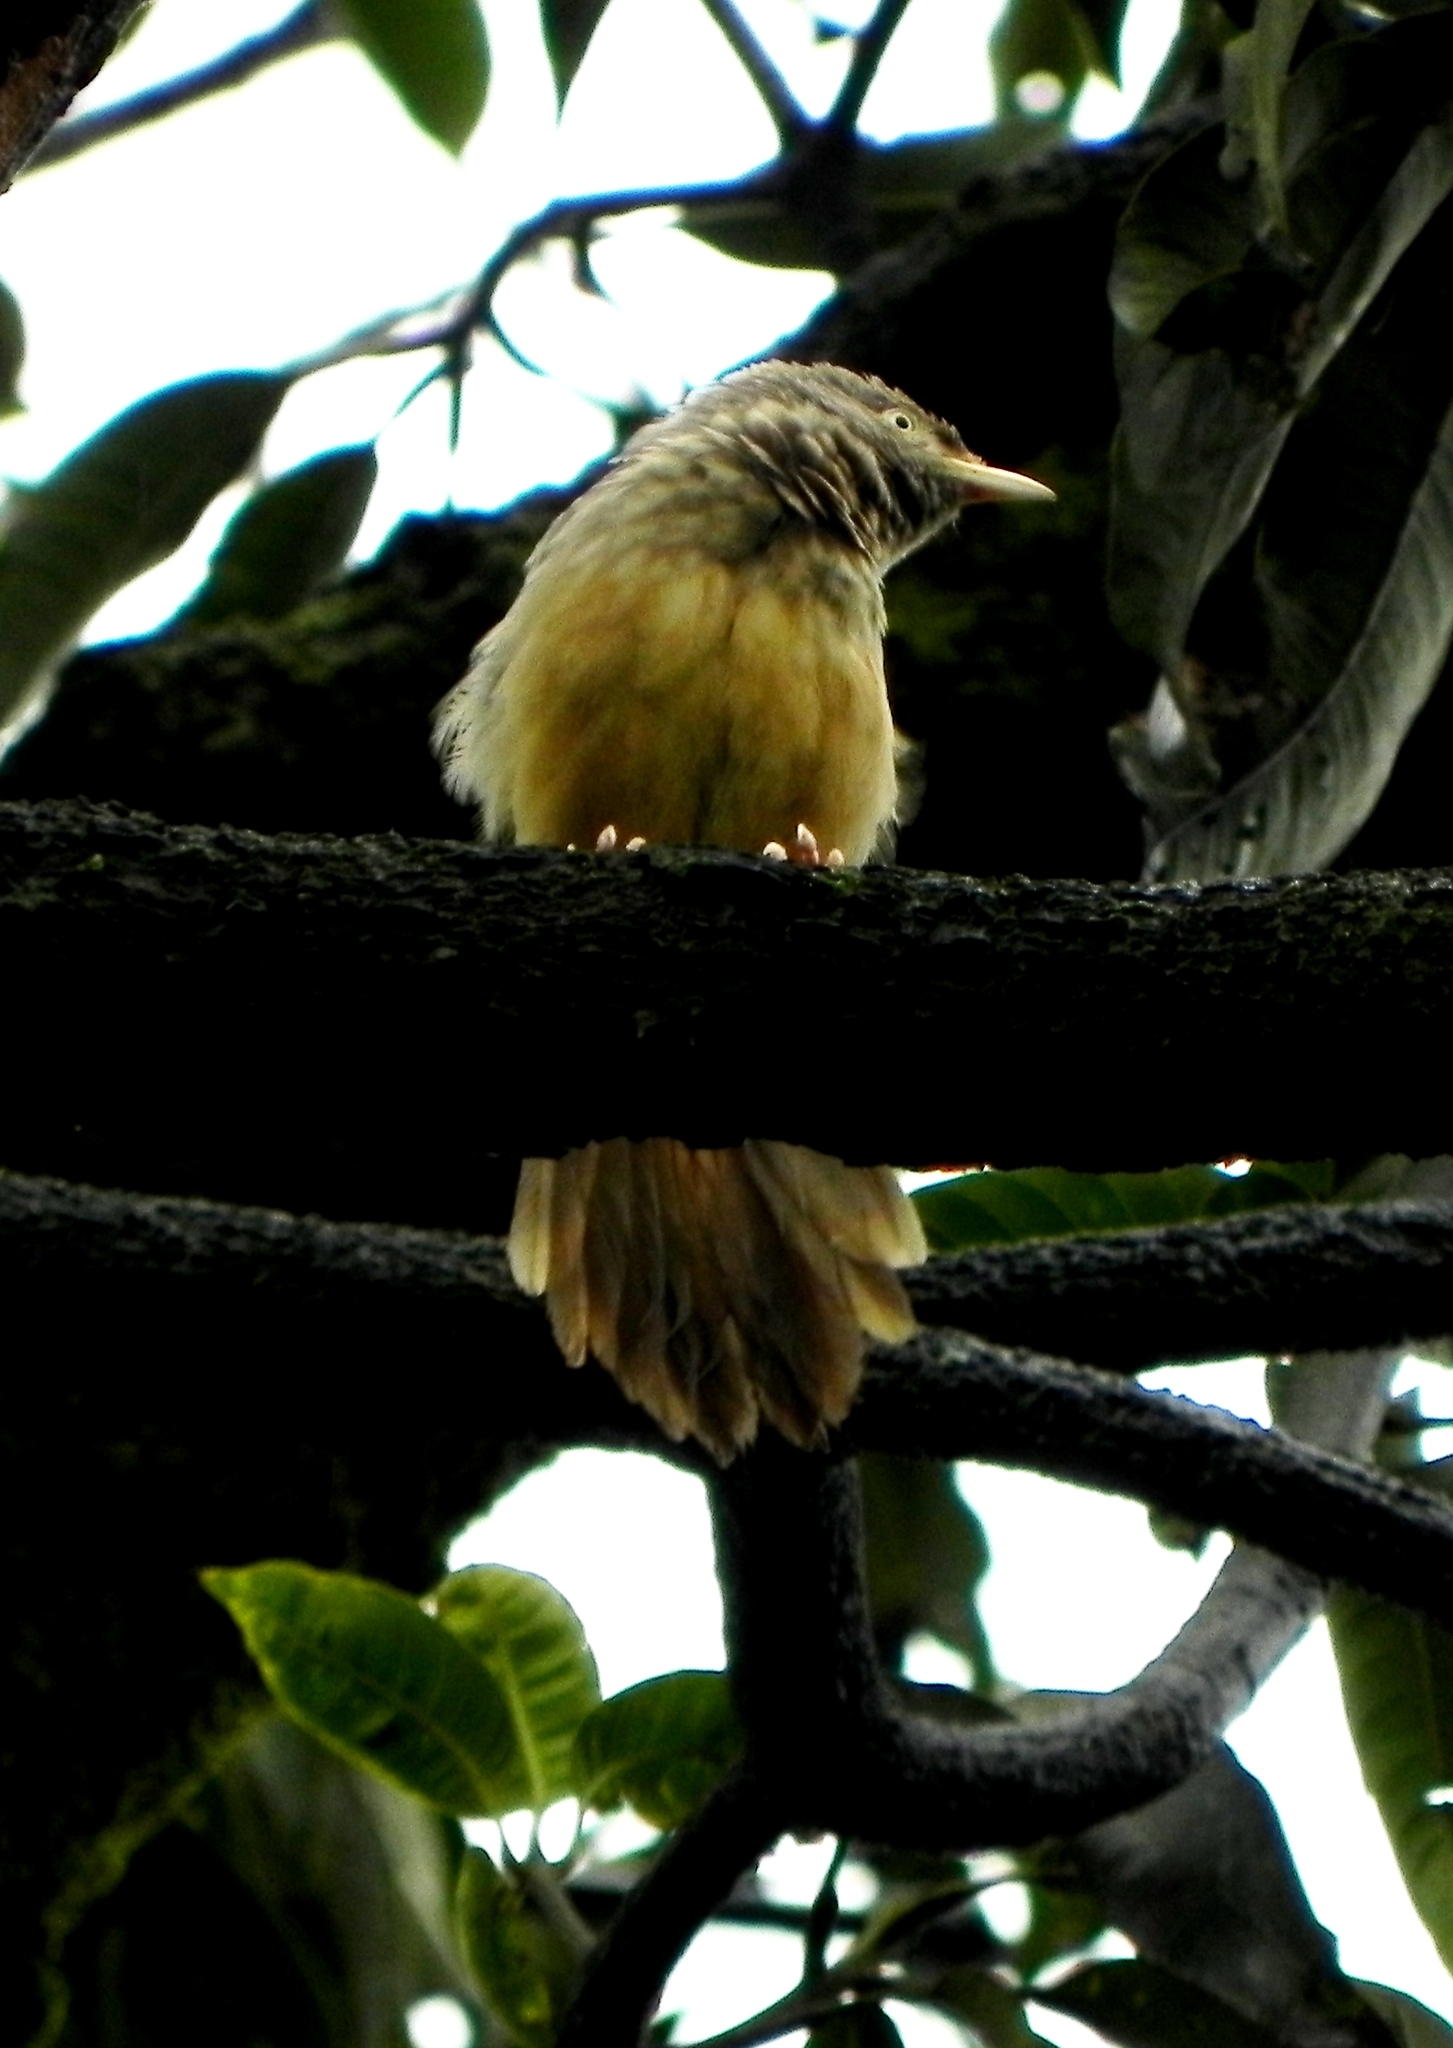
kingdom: Animalia
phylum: Chordata
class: Aves
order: Passeriformes
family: Leiothrichidae
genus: Turdoides
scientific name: Turdoides striata
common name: Jungle babbler
